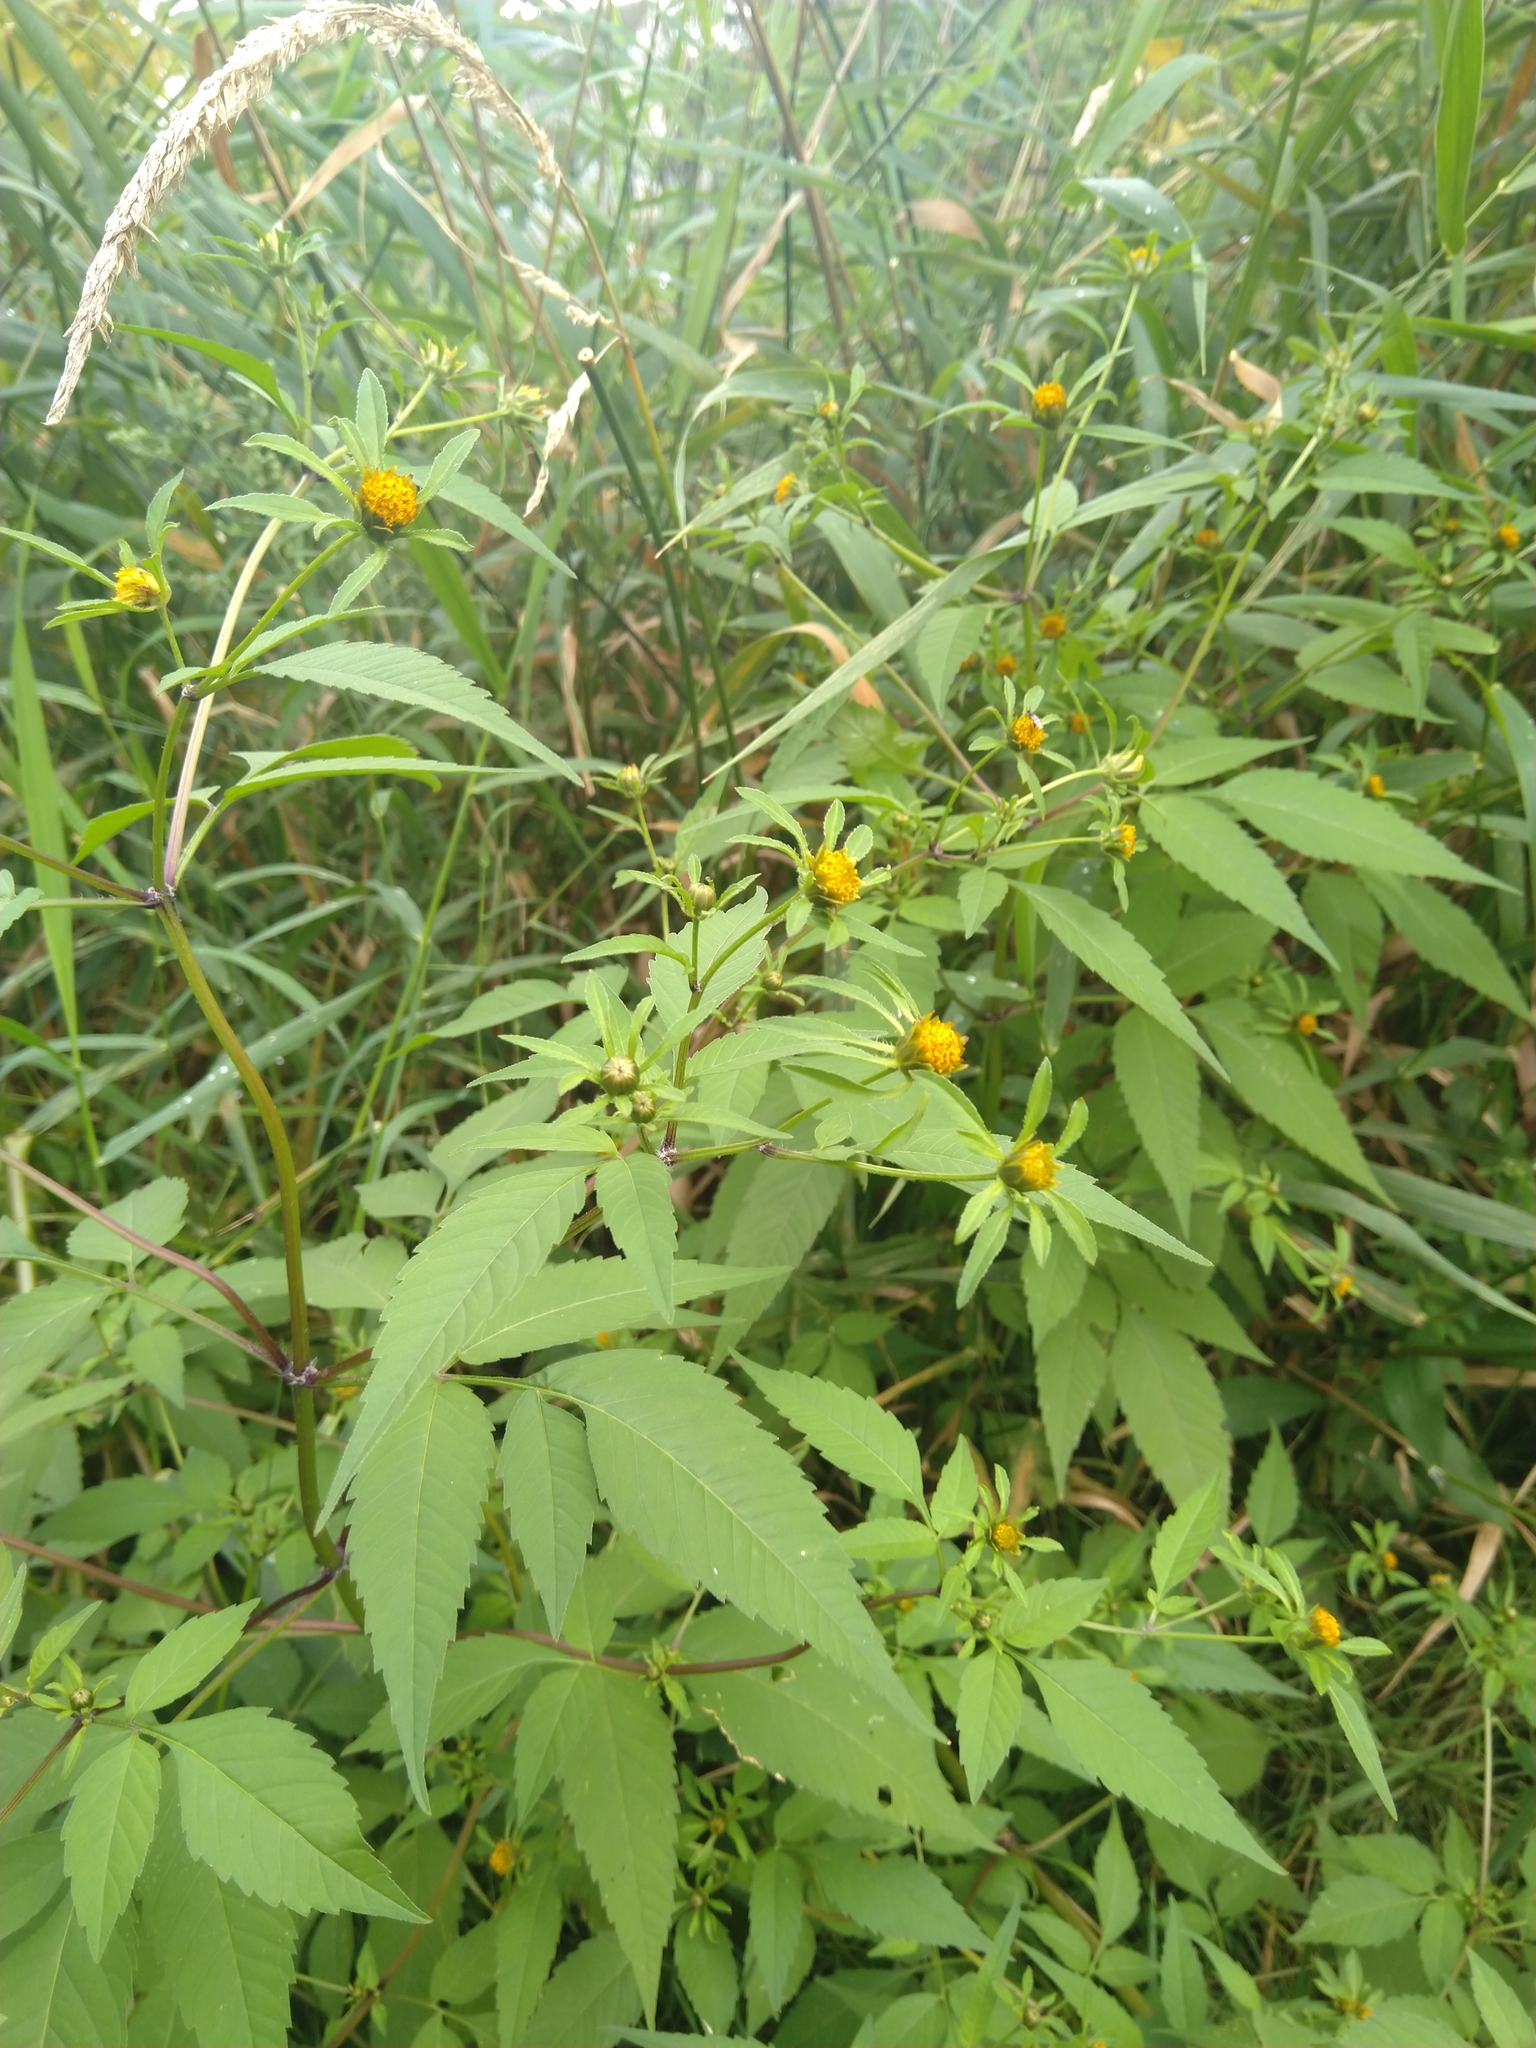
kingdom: Plantae
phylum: Tracheophyta
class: Magnoliopsida
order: Asterales
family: Asteraceae
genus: Bidens
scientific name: Bidens frondosa
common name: Beggarticks
